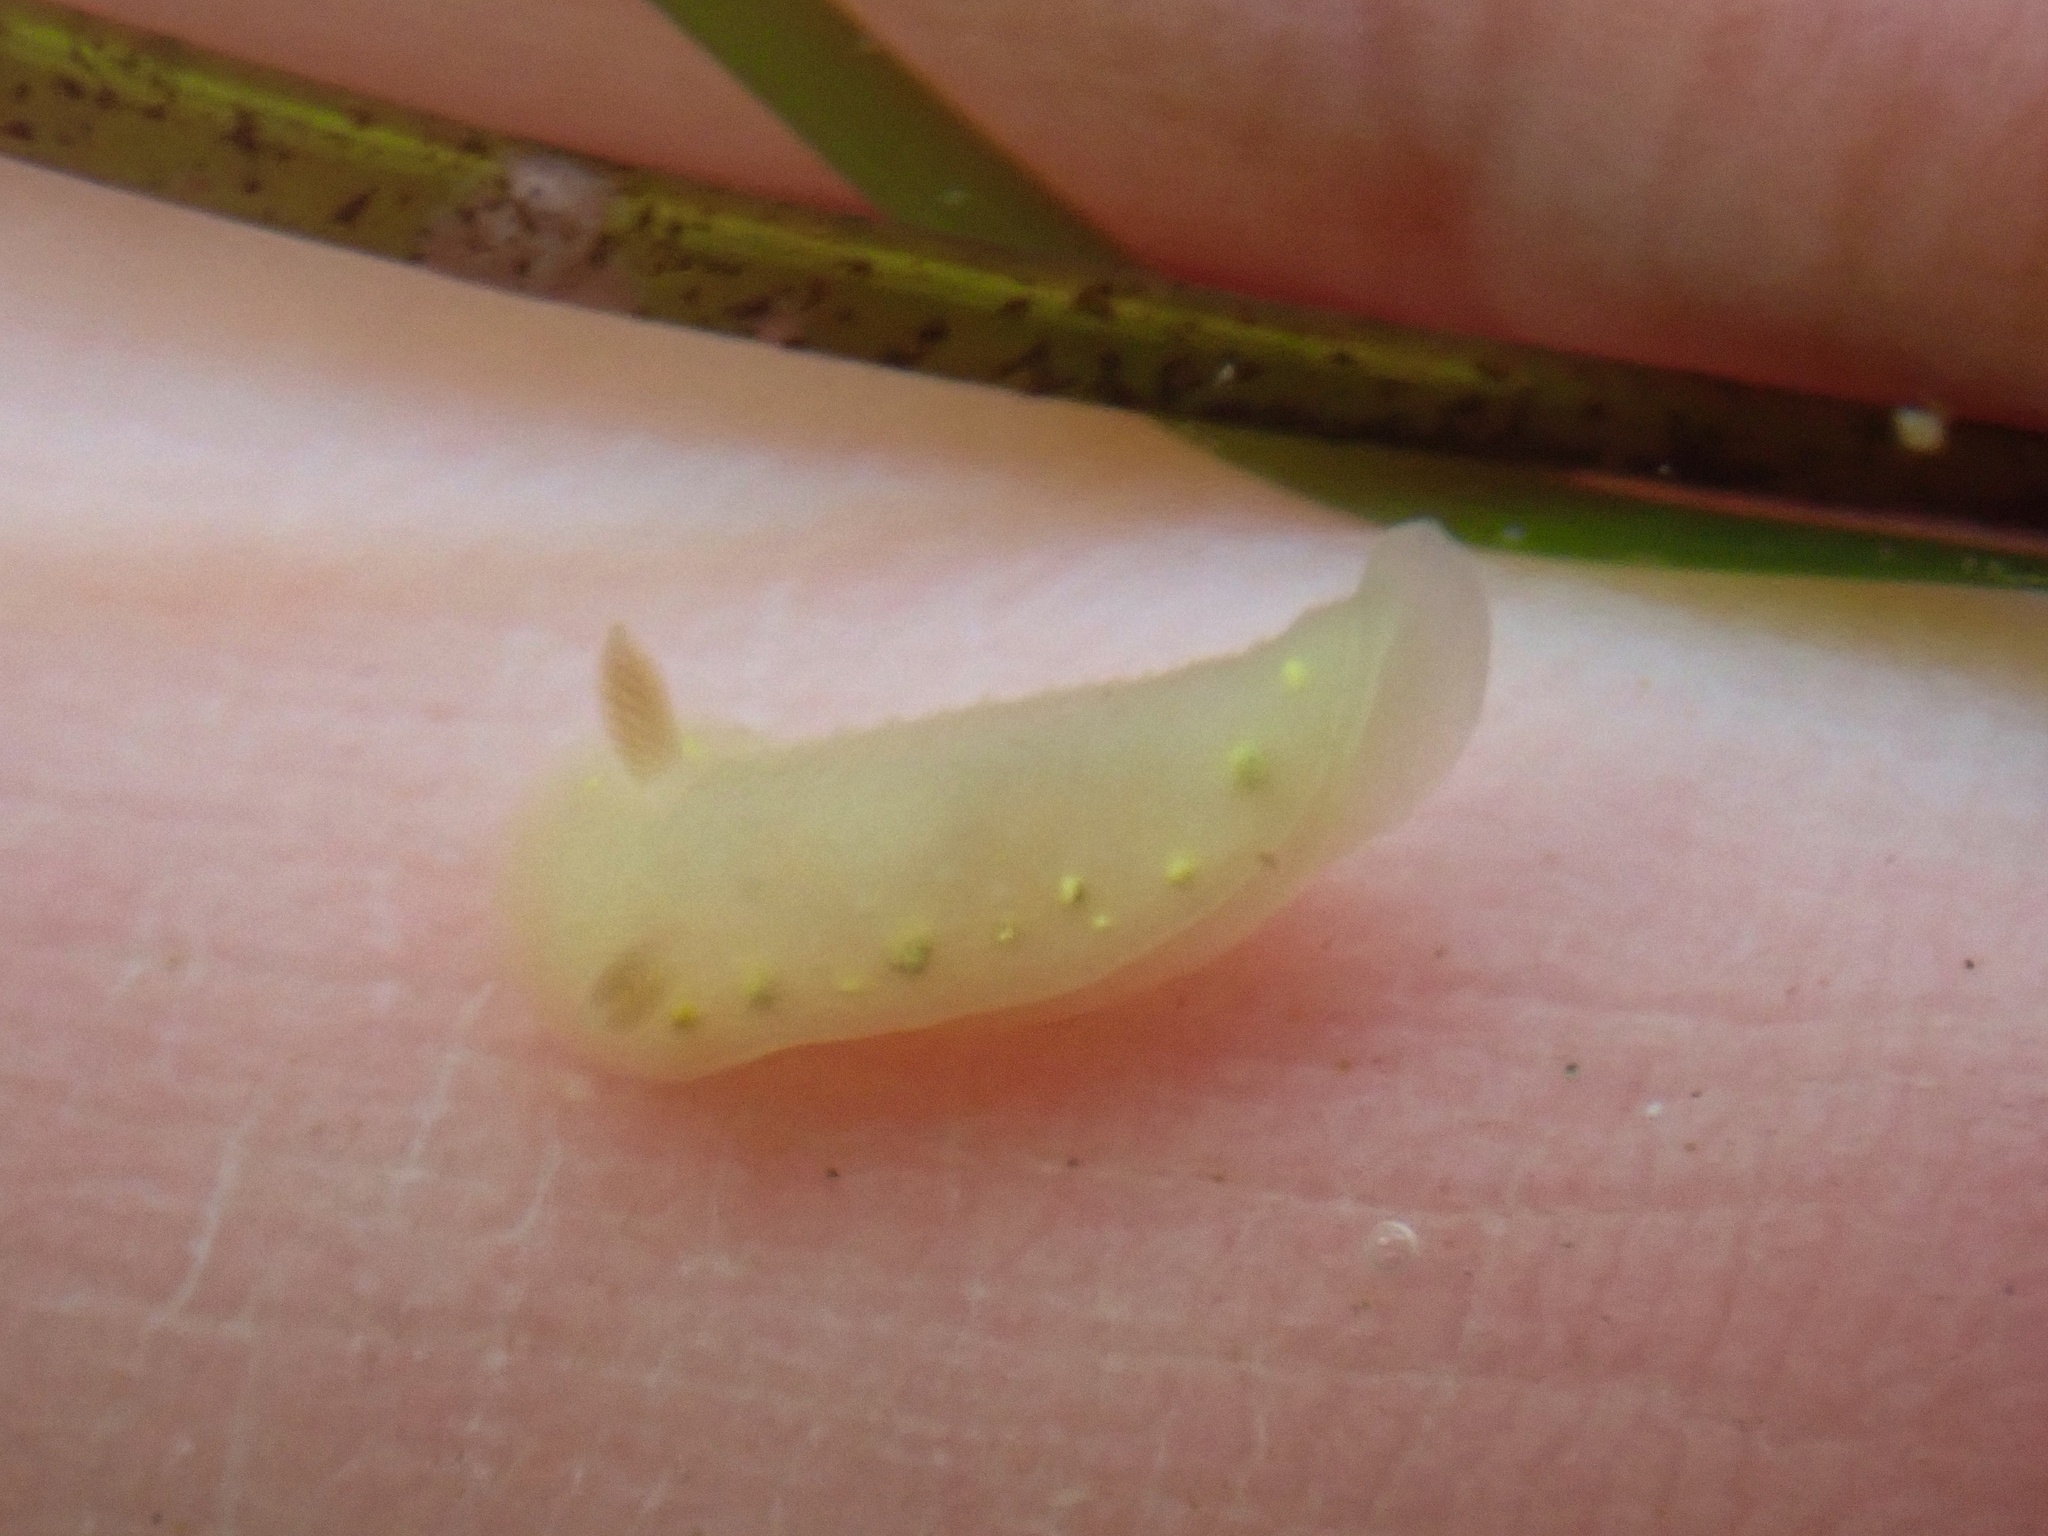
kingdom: Animalia
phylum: Mollusca
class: Gastropoda
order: Nudibranchia
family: Cadlinidae
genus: Cadlina
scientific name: Cadlina sparsa
